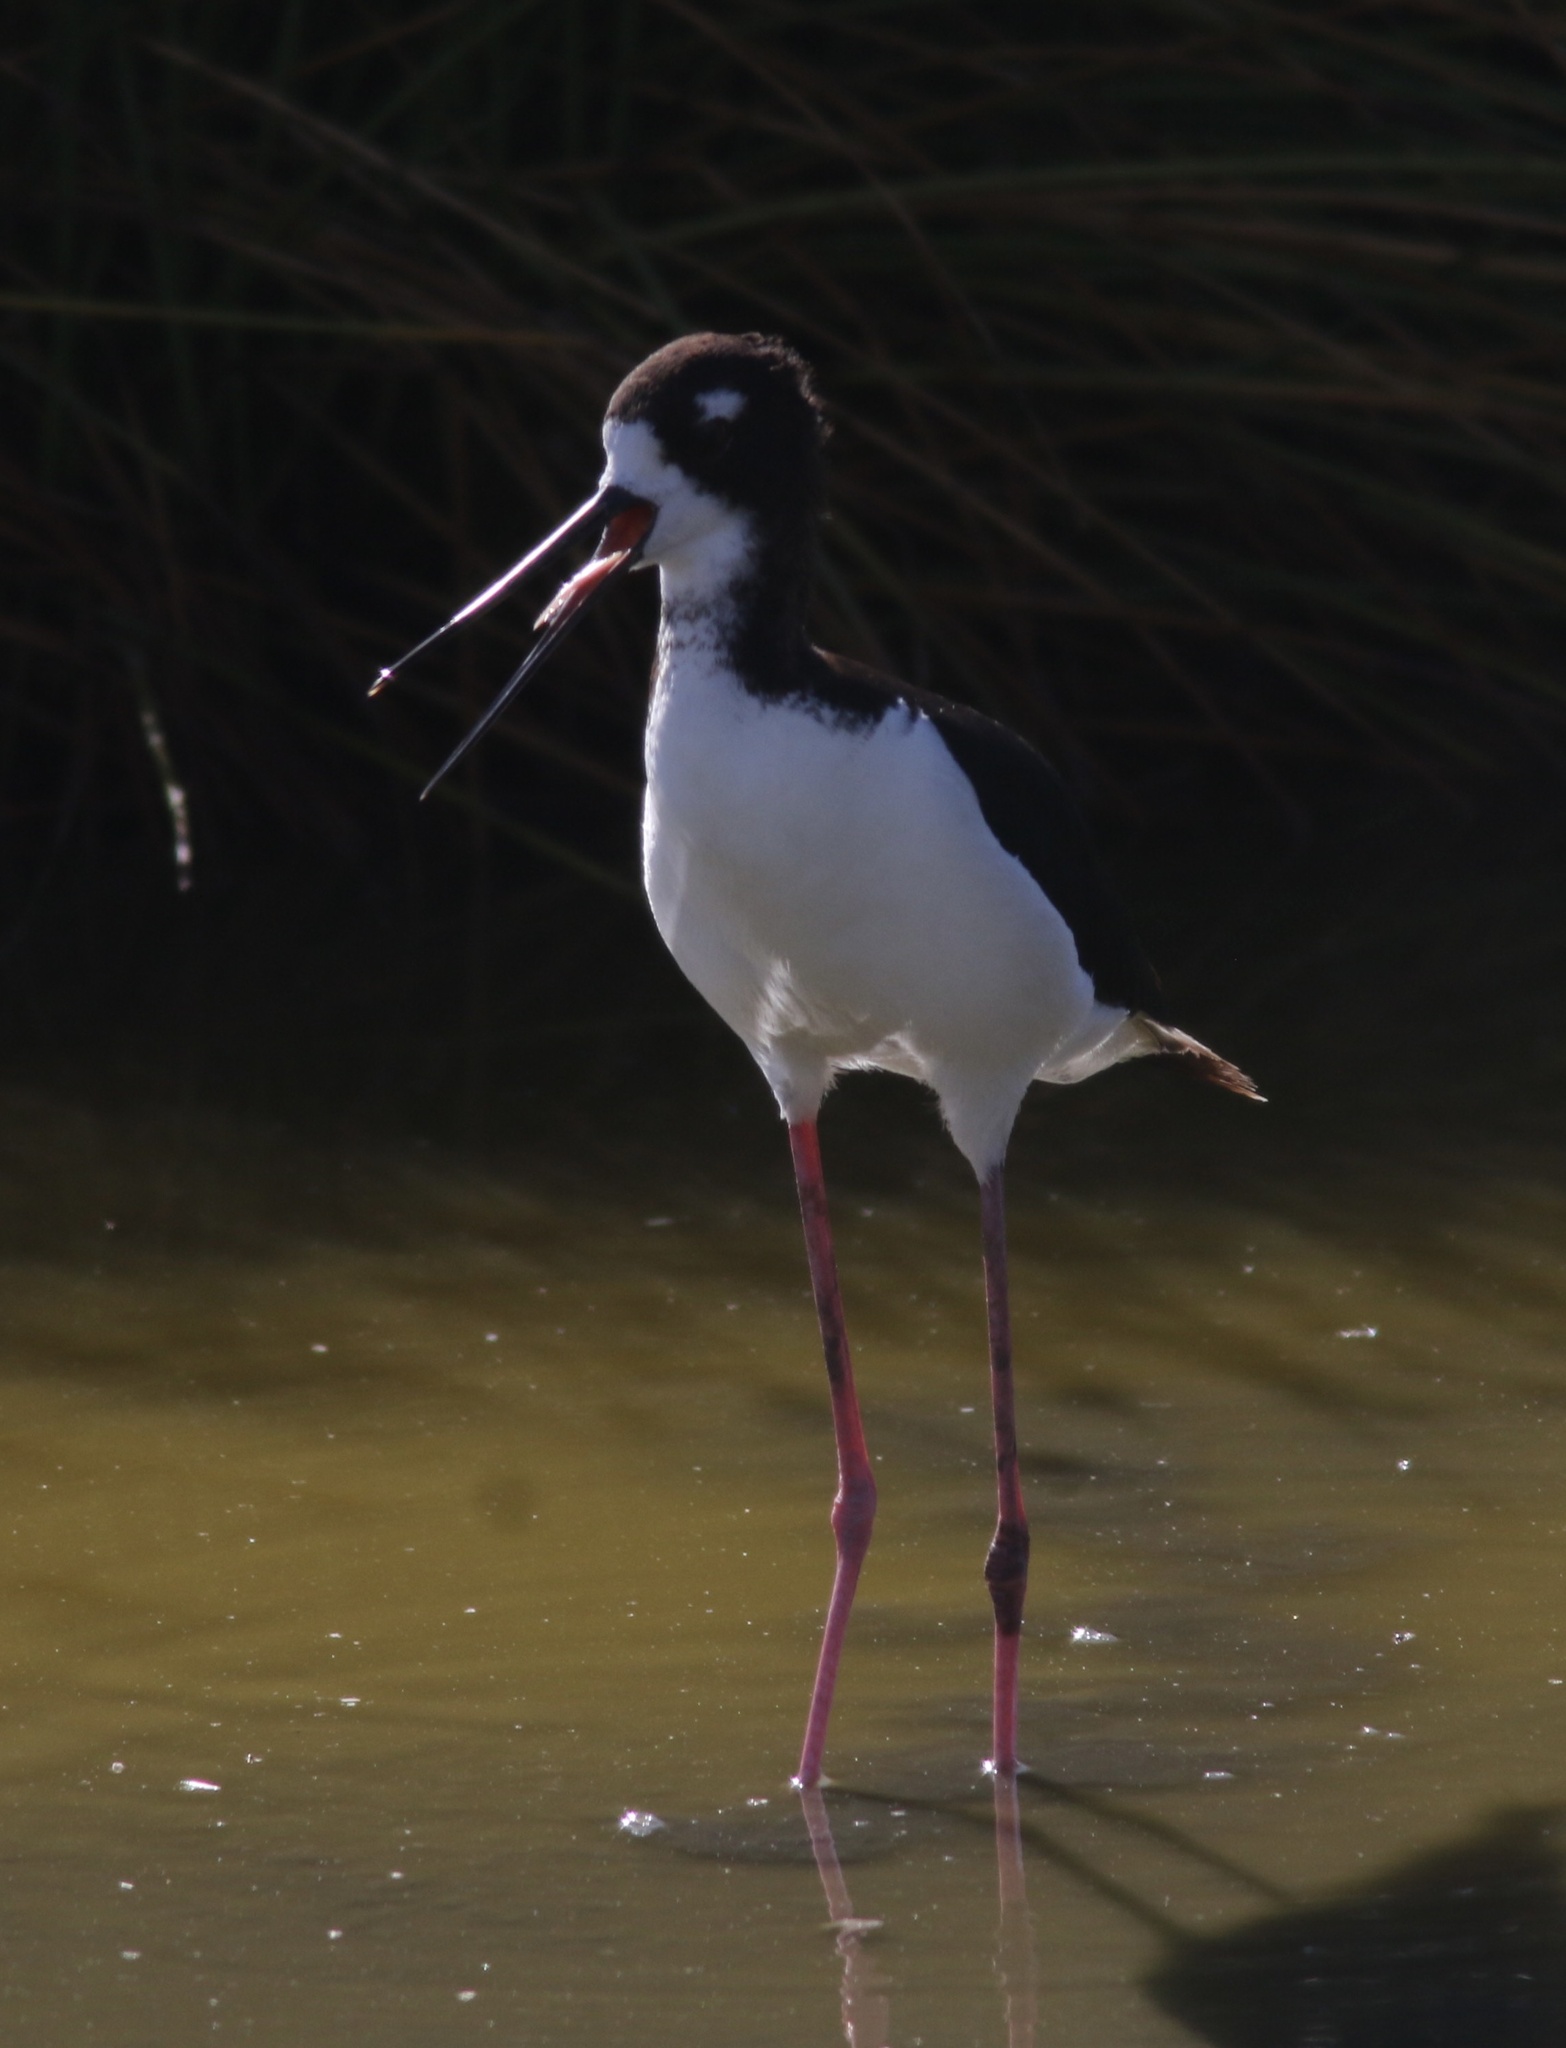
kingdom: Animalia
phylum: Chordata
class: Aves
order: Charadriiformes
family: Recurvirostridae
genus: Himantopus
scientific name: Himantopus mexicanus
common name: Black-necked stilt
